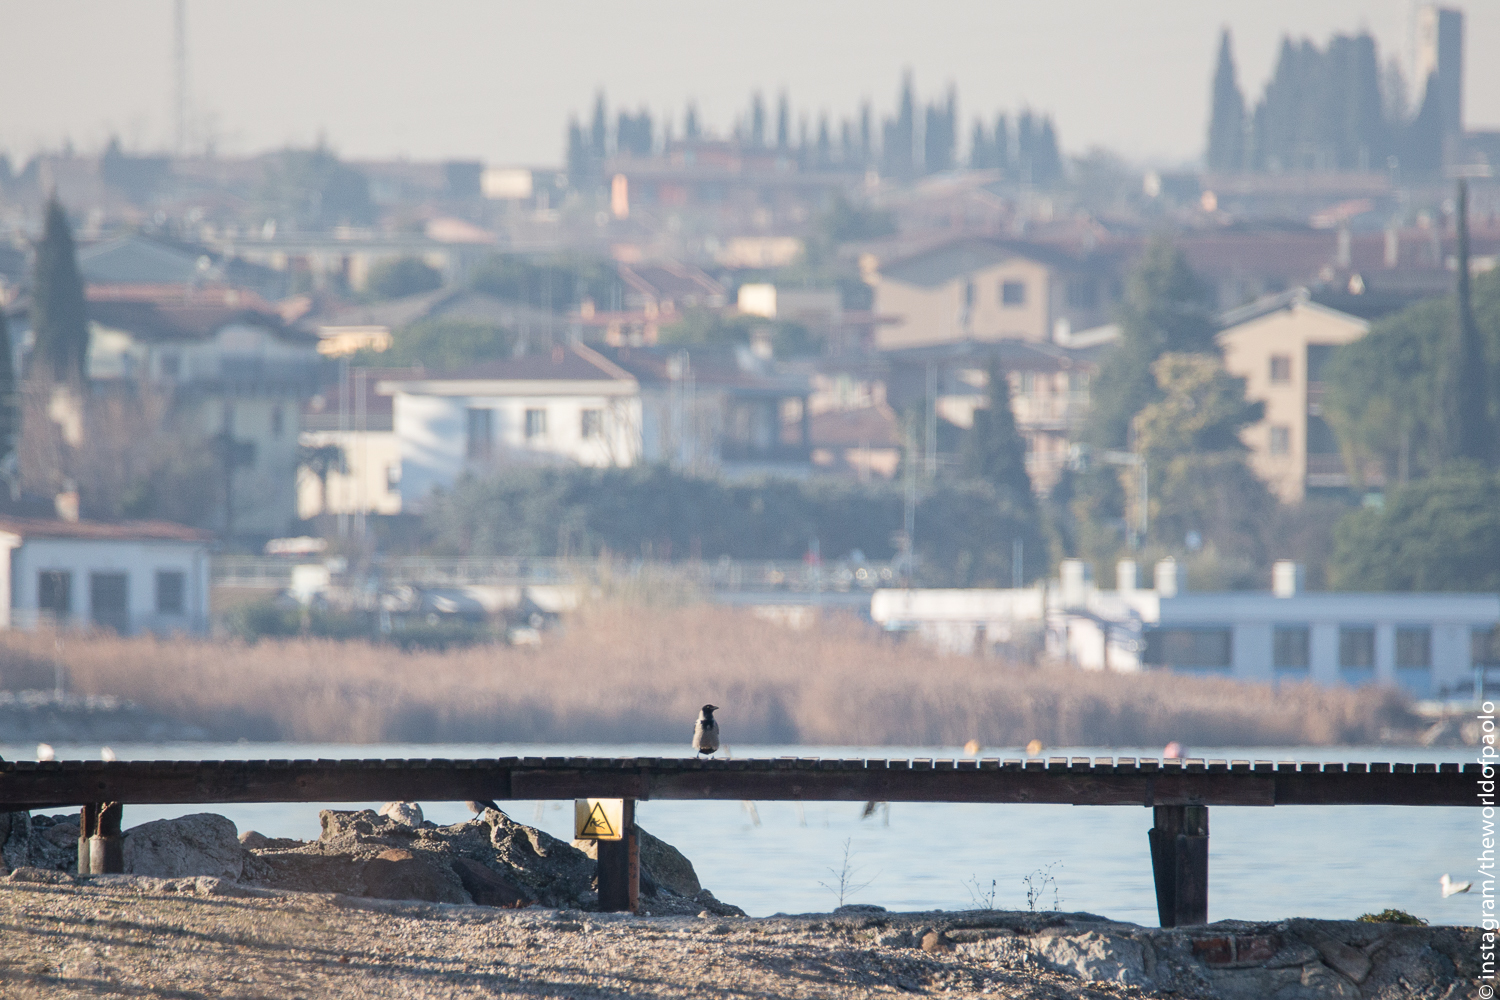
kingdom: Animalia
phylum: Chordata
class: Aves
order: Passeriformes
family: Corvidae
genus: Corvus
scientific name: Corvus cornix
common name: Hooded crow
